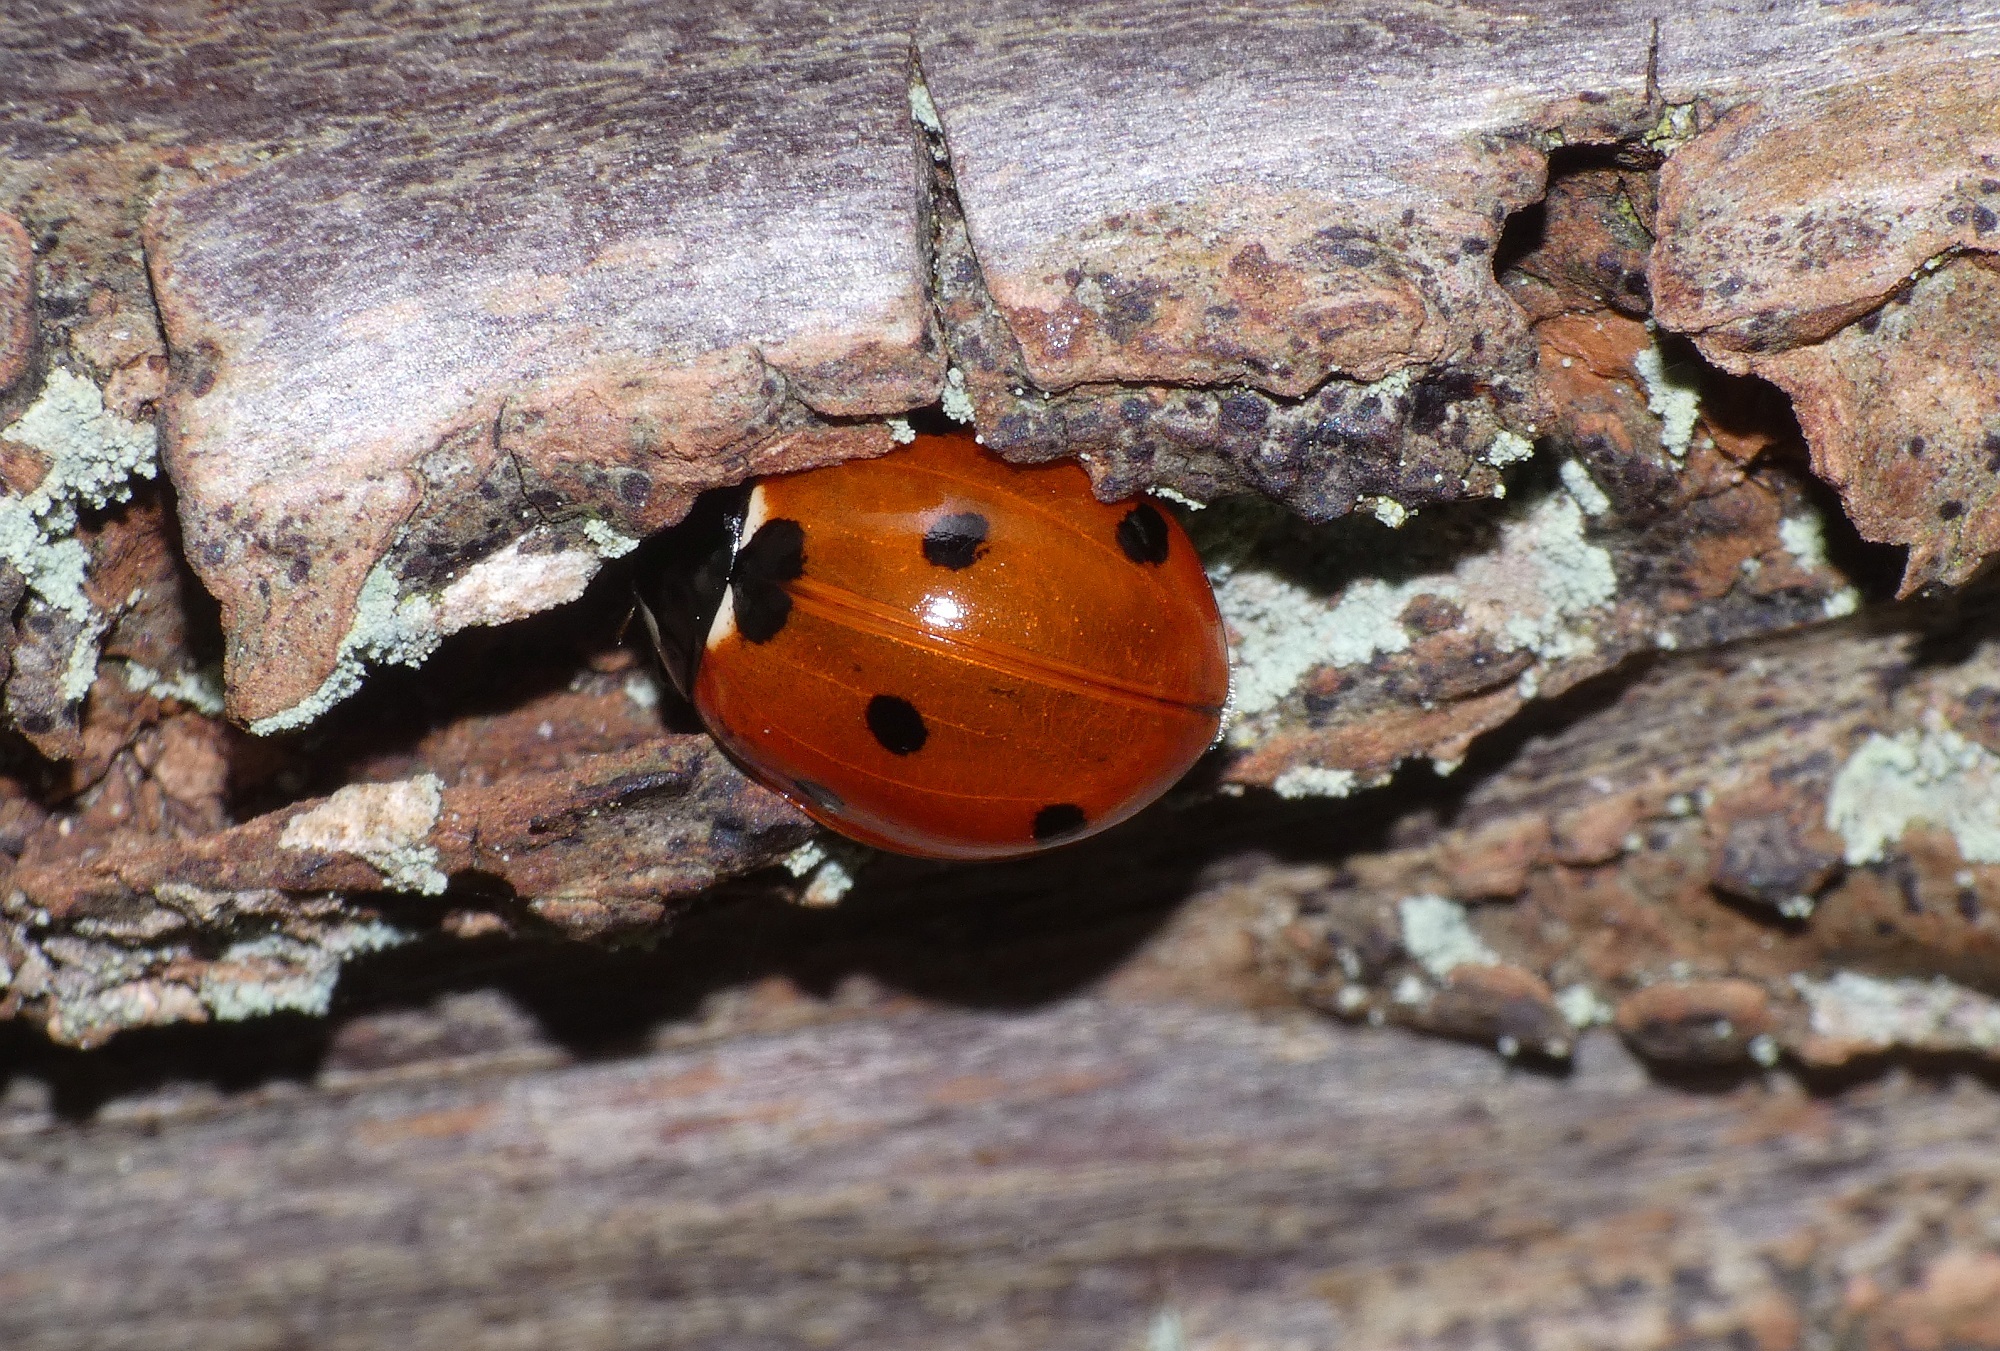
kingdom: Animalia
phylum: Arthropoda
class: Insecta
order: Coleoptera
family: Coccinellidae
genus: Coccinella
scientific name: Coccinella septempunctata
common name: Sevenspotted lady beetle
